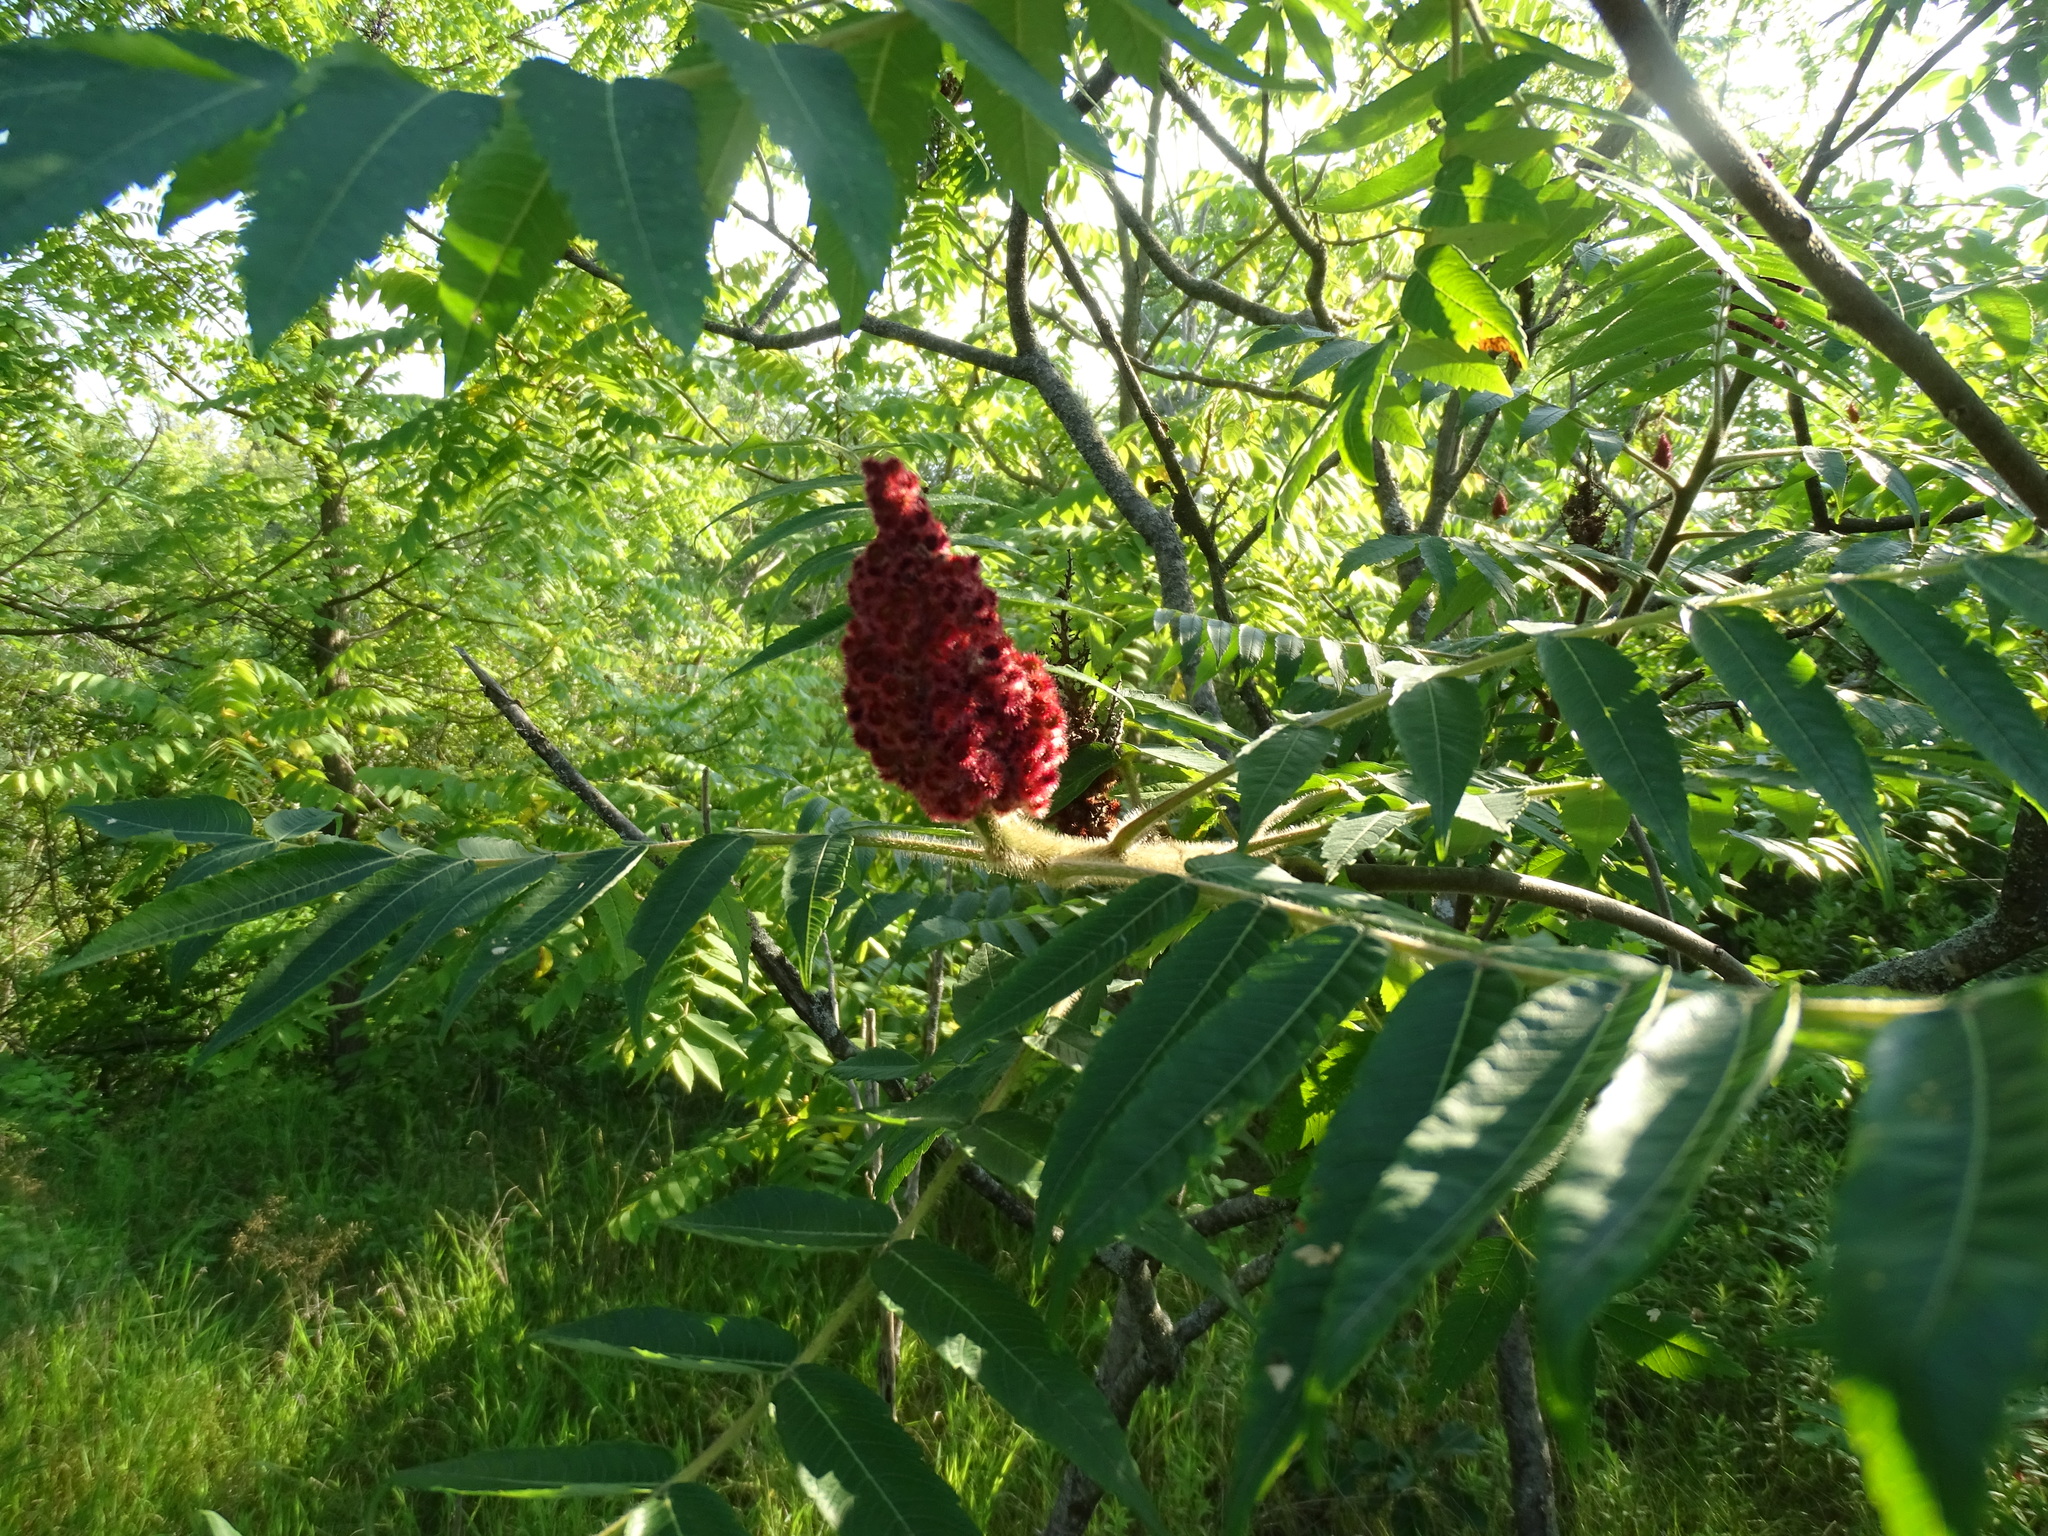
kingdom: Plantae
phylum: Tracheophyta
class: Magnoliopsida
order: Sapindales
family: Anacardiaceae
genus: Rhus
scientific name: Rhus typhina
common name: Staghorn sumac
